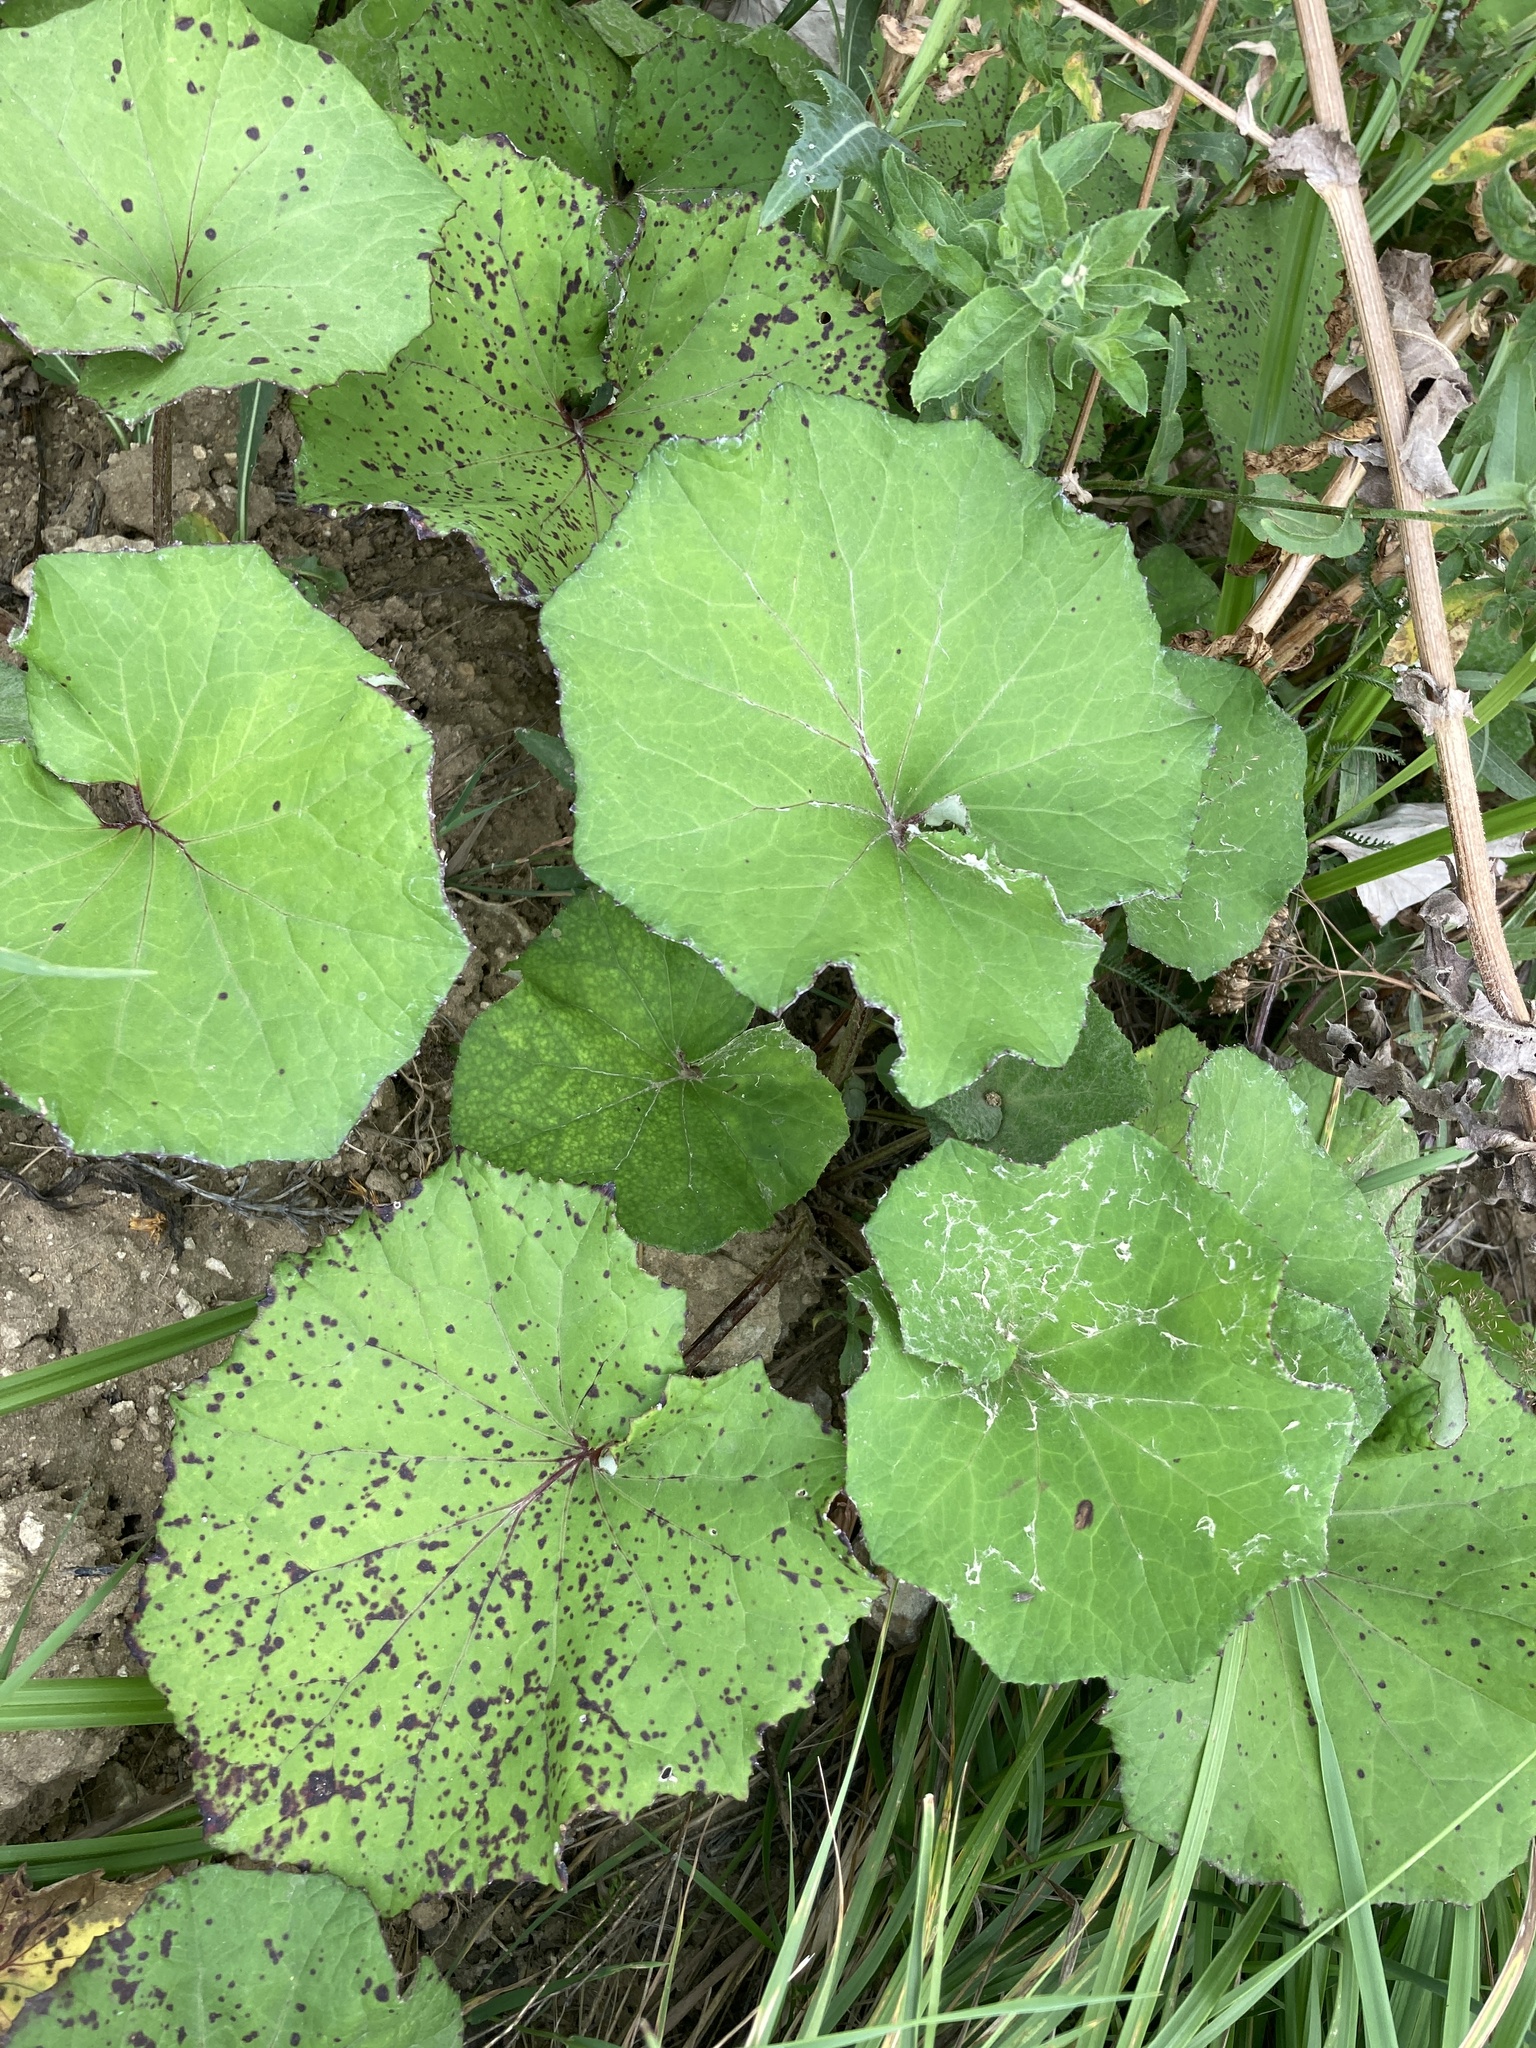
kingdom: Plantae
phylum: Tracheophyta
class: Magnoliopsida
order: Asterales
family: Asteraceae
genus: Tussilago
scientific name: Tussilago farfara
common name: Coltsfoot
